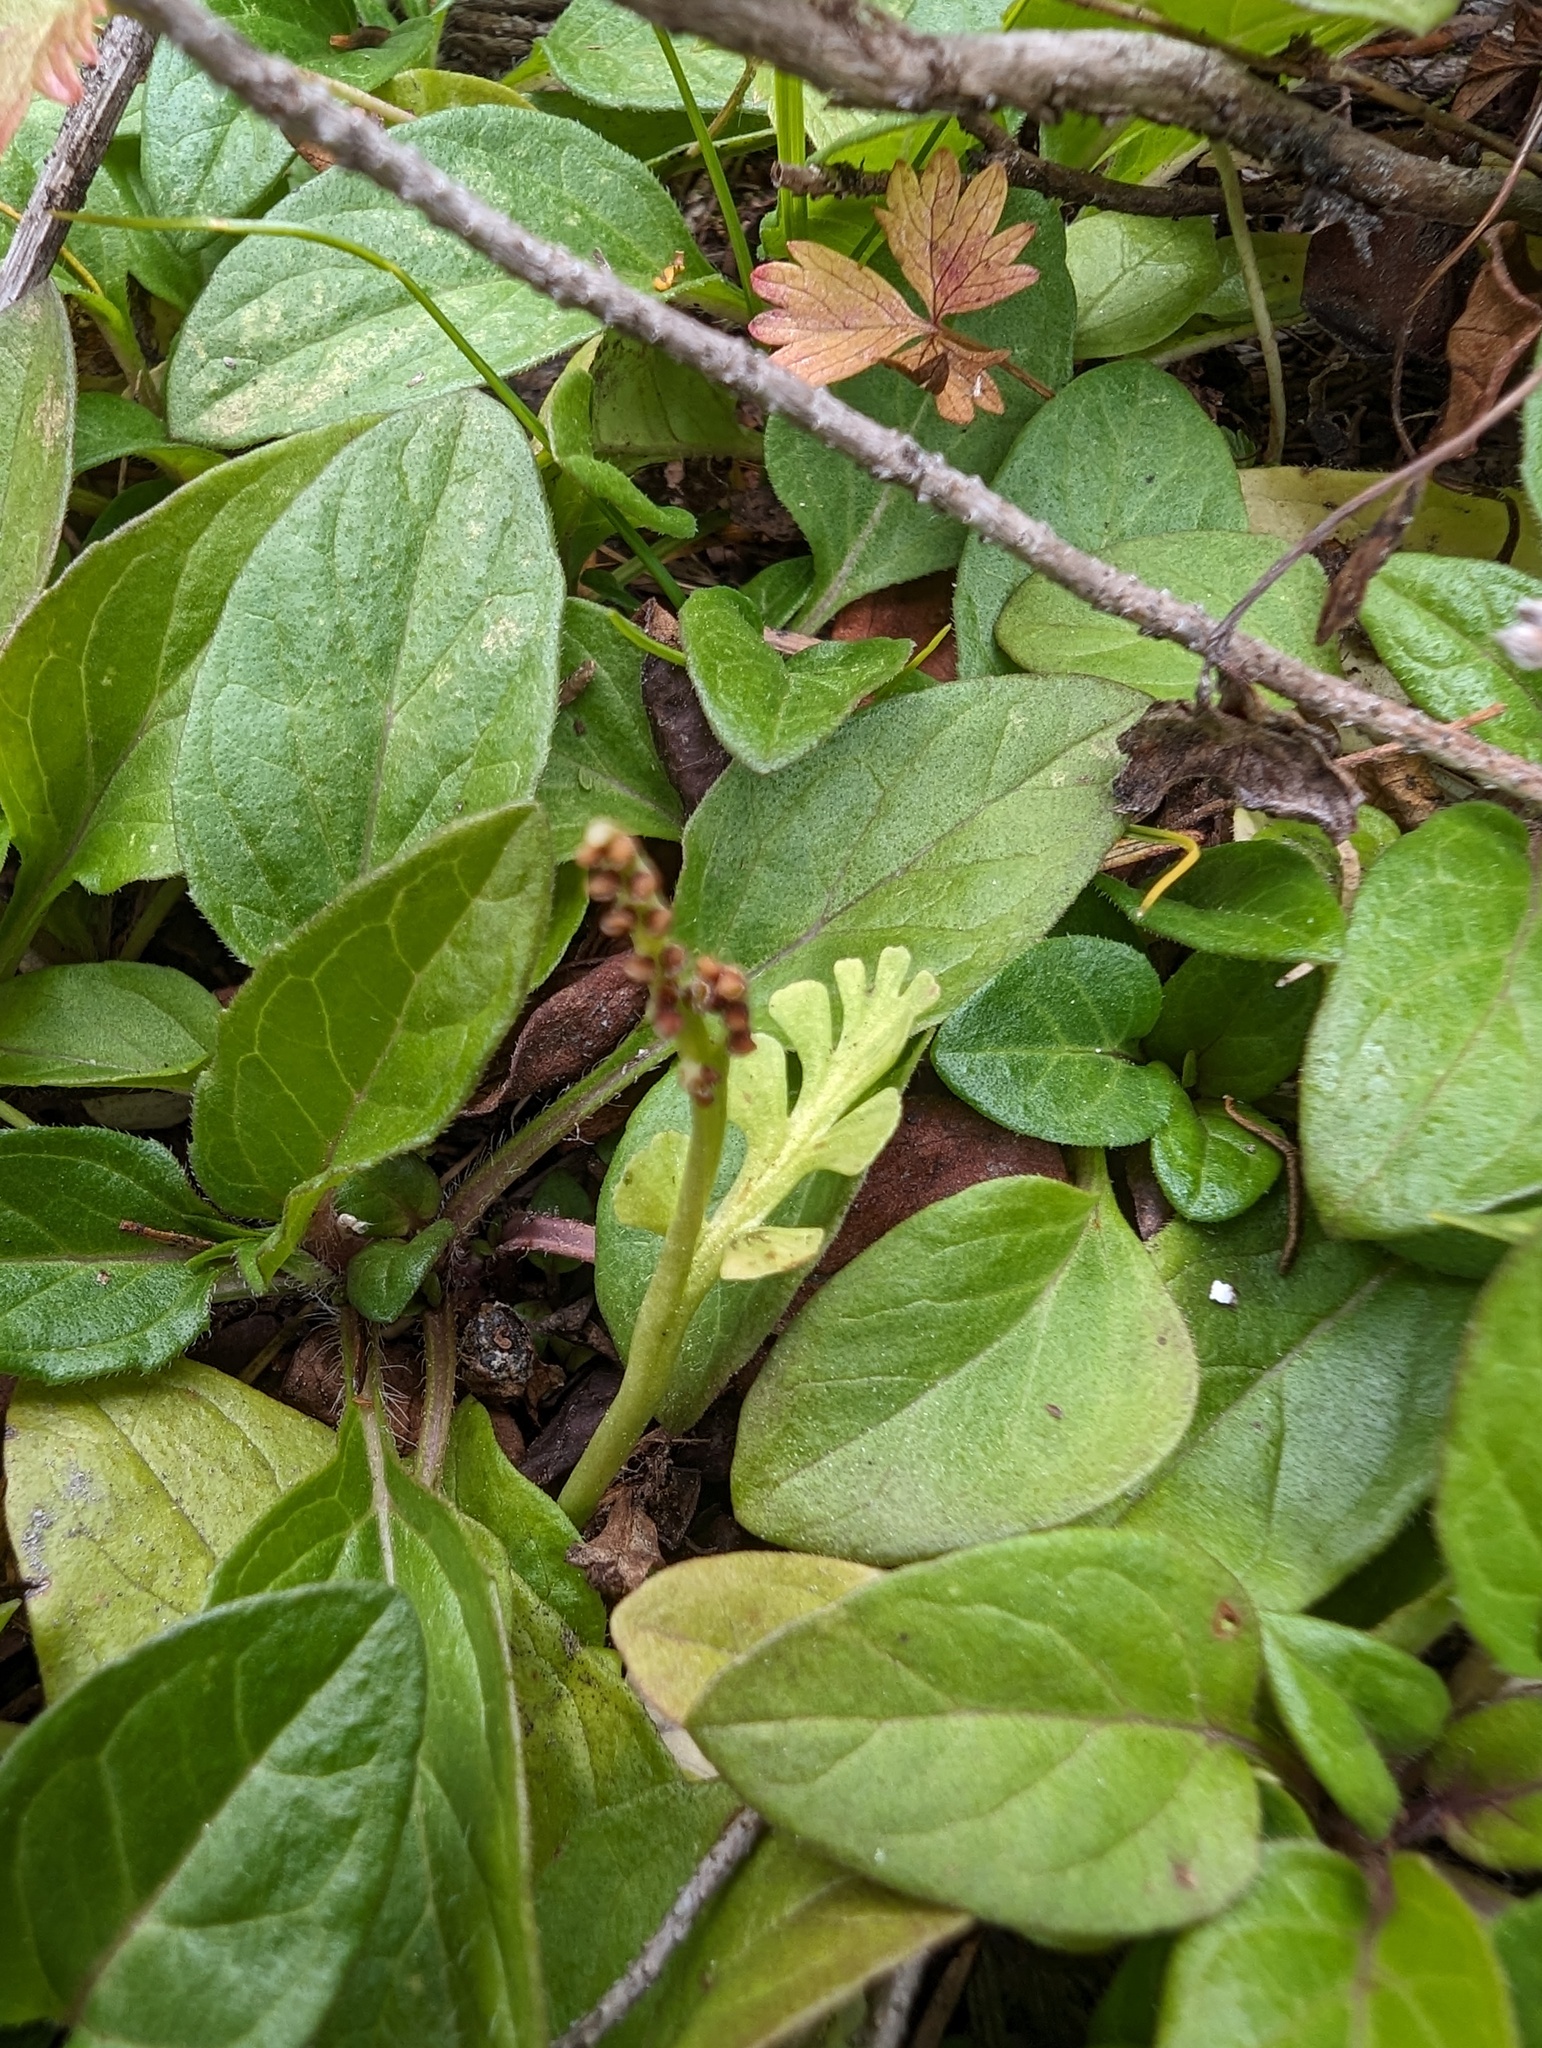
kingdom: Plantae
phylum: Tracheophyta
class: Polypodiopsida
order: Ophioglossales
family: Ophioglossaceae
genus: Botrychium
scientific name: Botrychium minganense
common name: Mingan grapefern
